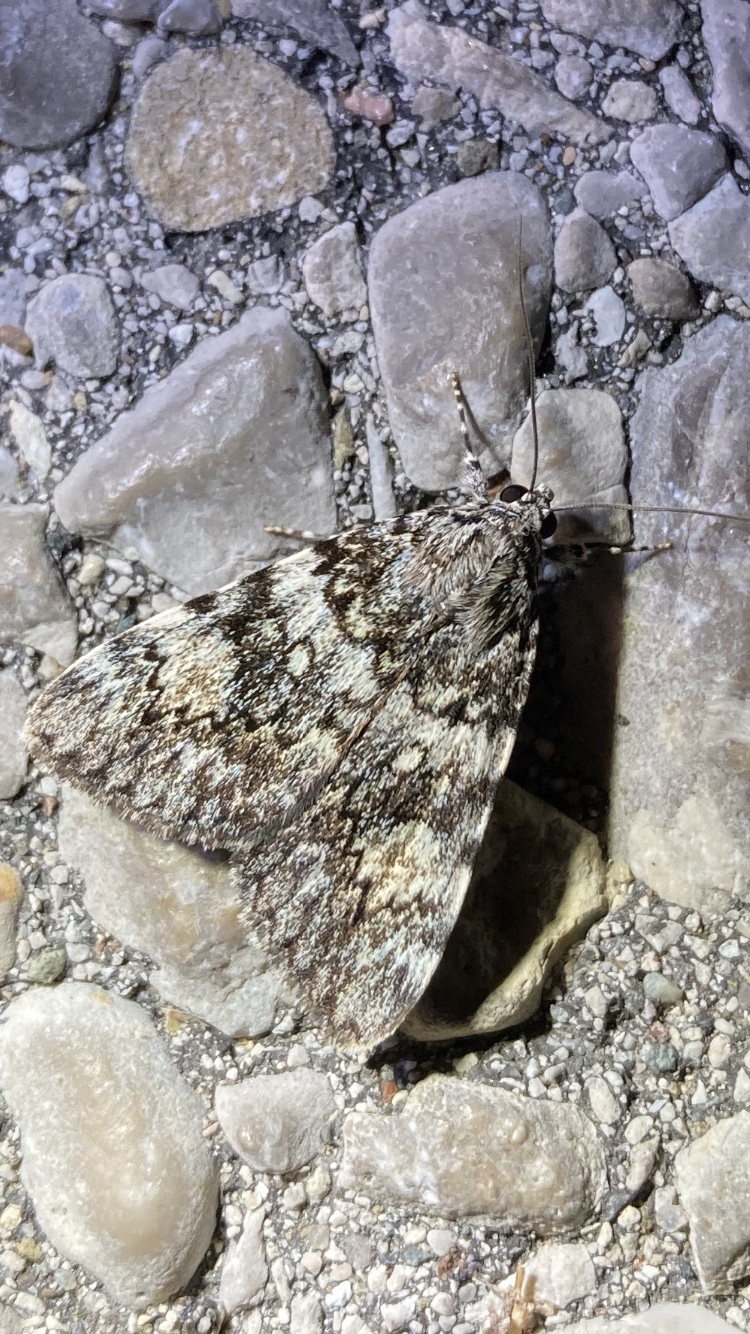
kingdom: Animalia
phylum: Arthropoda
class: Insecta
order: Lepidoptera
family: Erebidae
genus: Catocala
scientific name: Catocala lineella
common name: Little lined underwing
